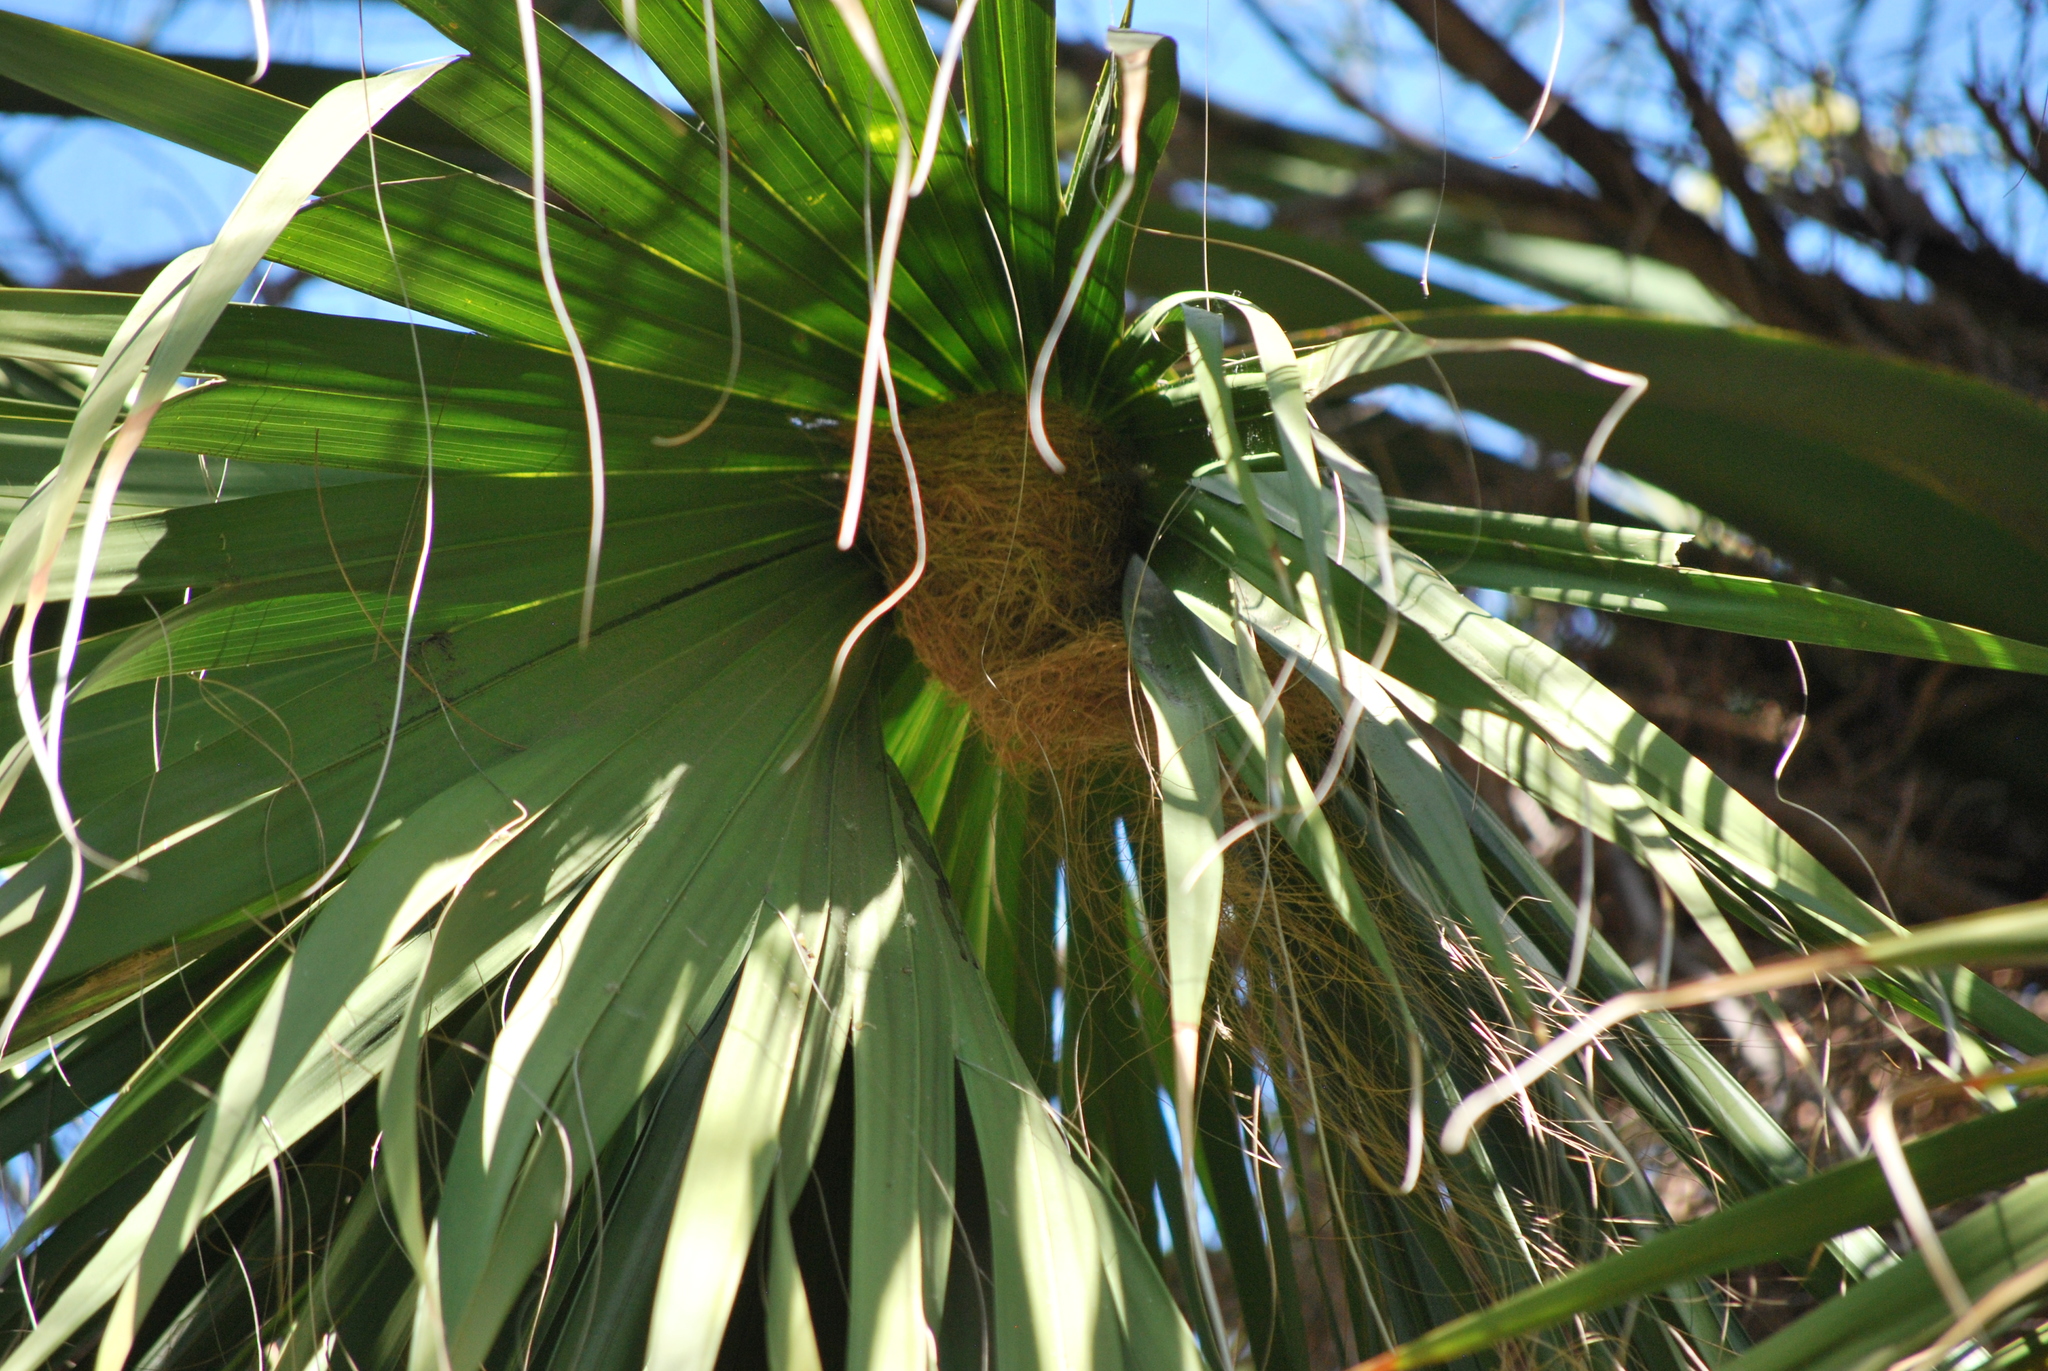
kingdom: Animalia
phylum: Chordata
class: Aves
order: Passeriformes
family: Icteridae
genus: Icterus
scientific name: Icterus cucullatus
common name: Hooded oriole
